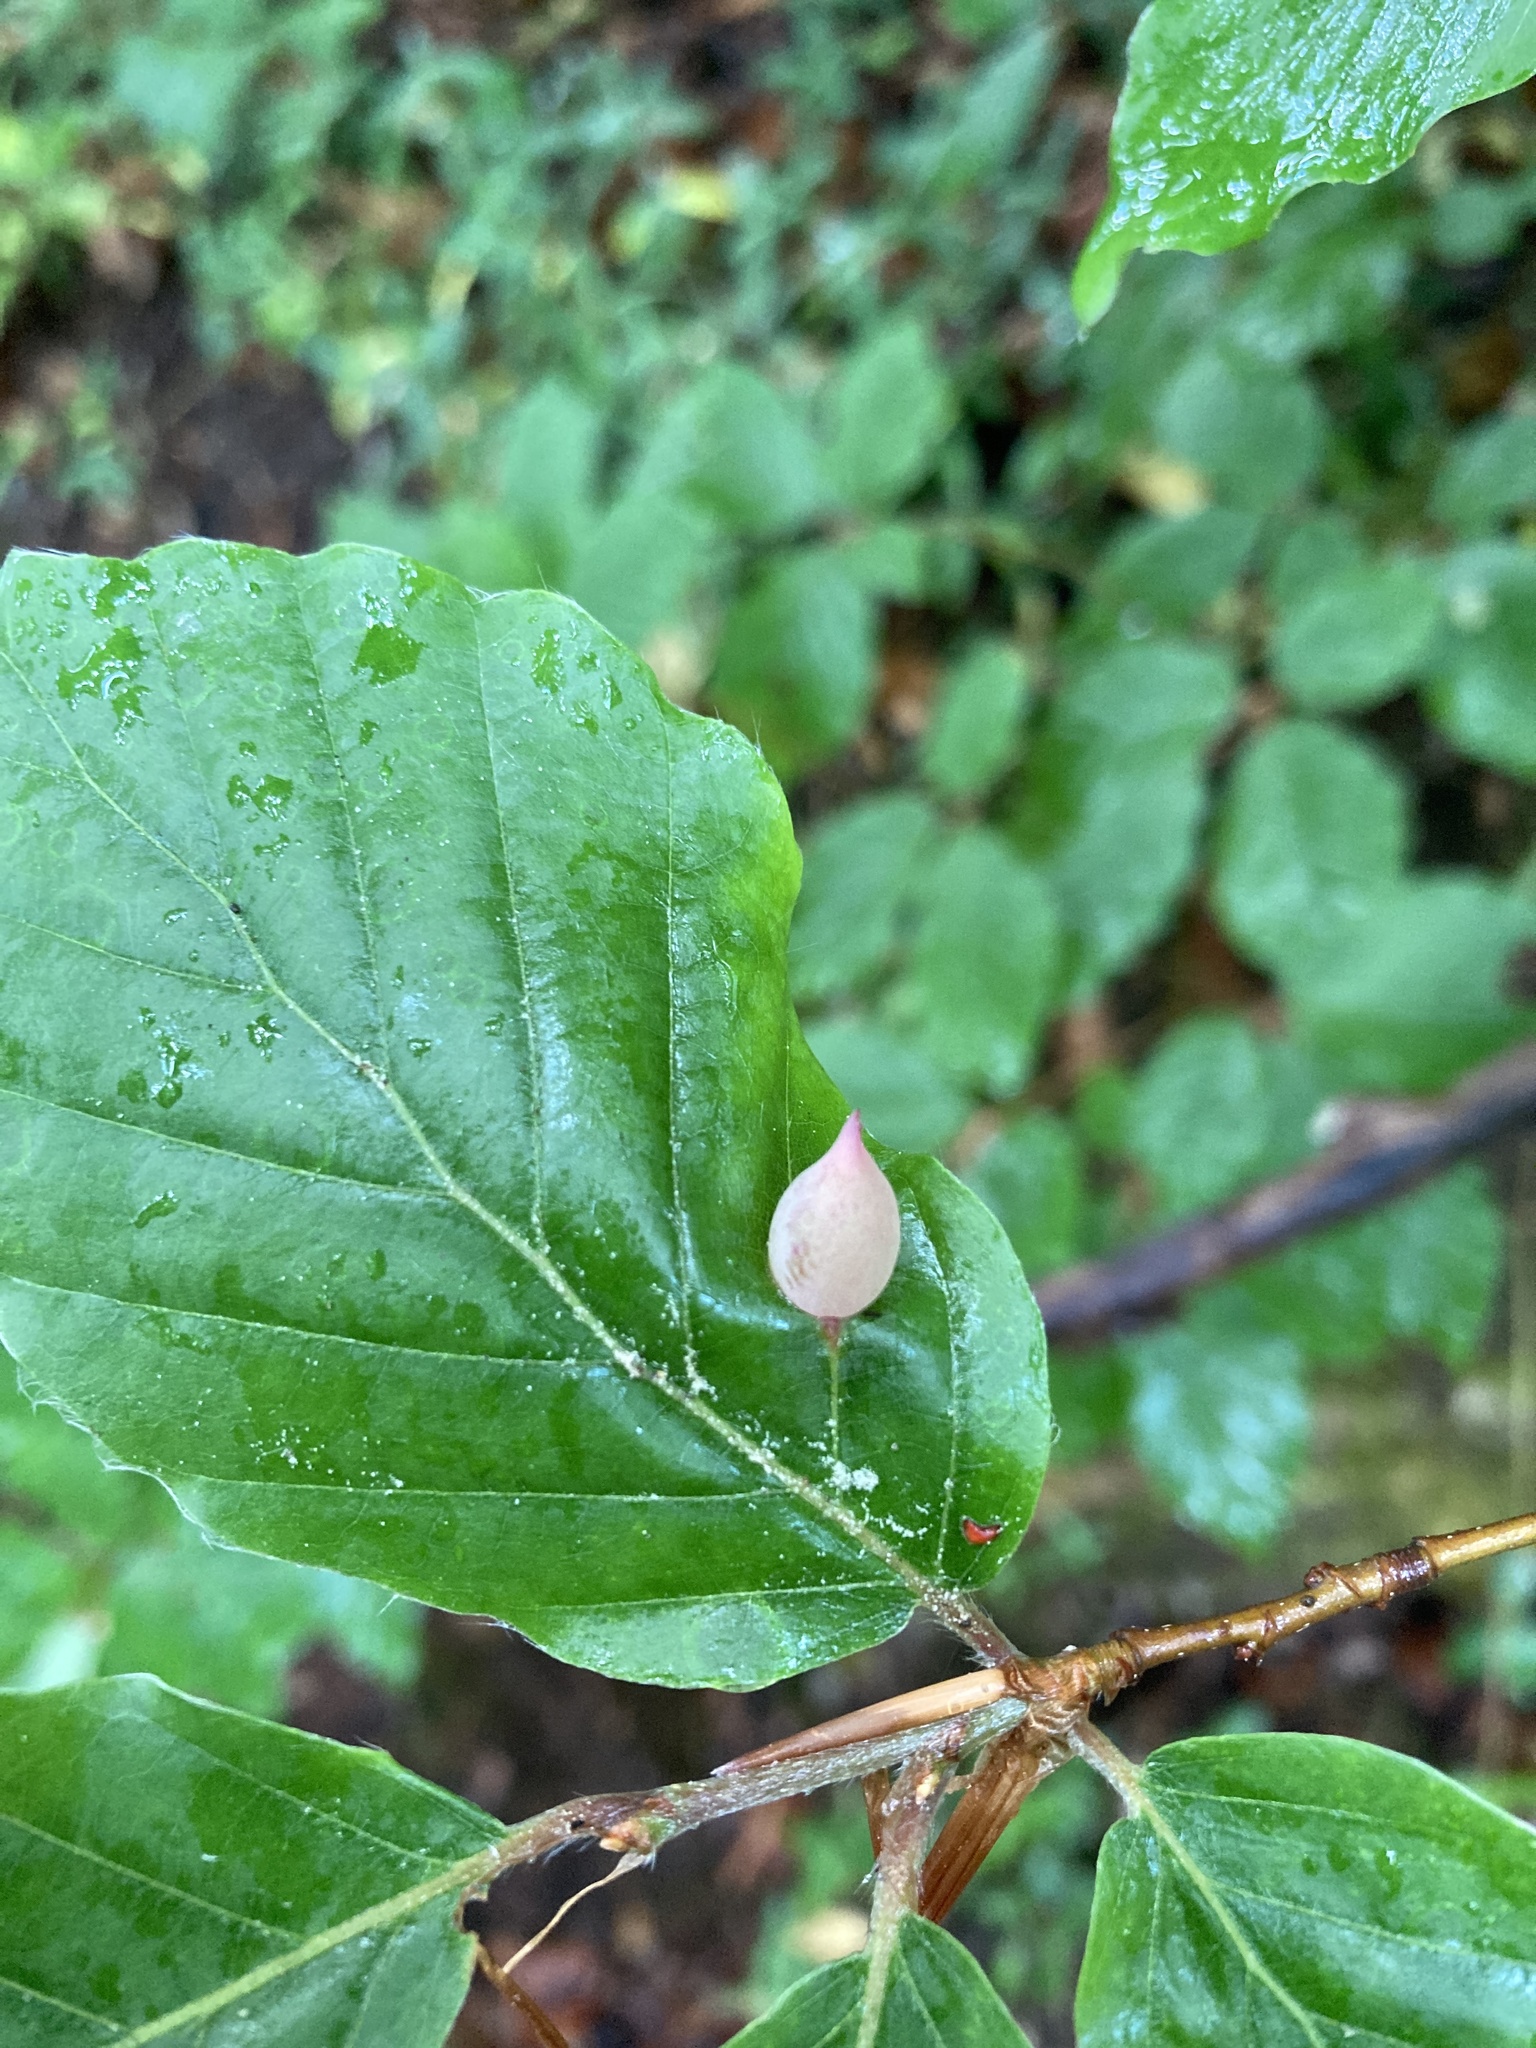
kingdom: Animalia
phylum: Arthropoda
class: Insecta
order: Diptera
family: Cecidomyiidae
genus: Mikiola
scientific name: Mikiola fagi
